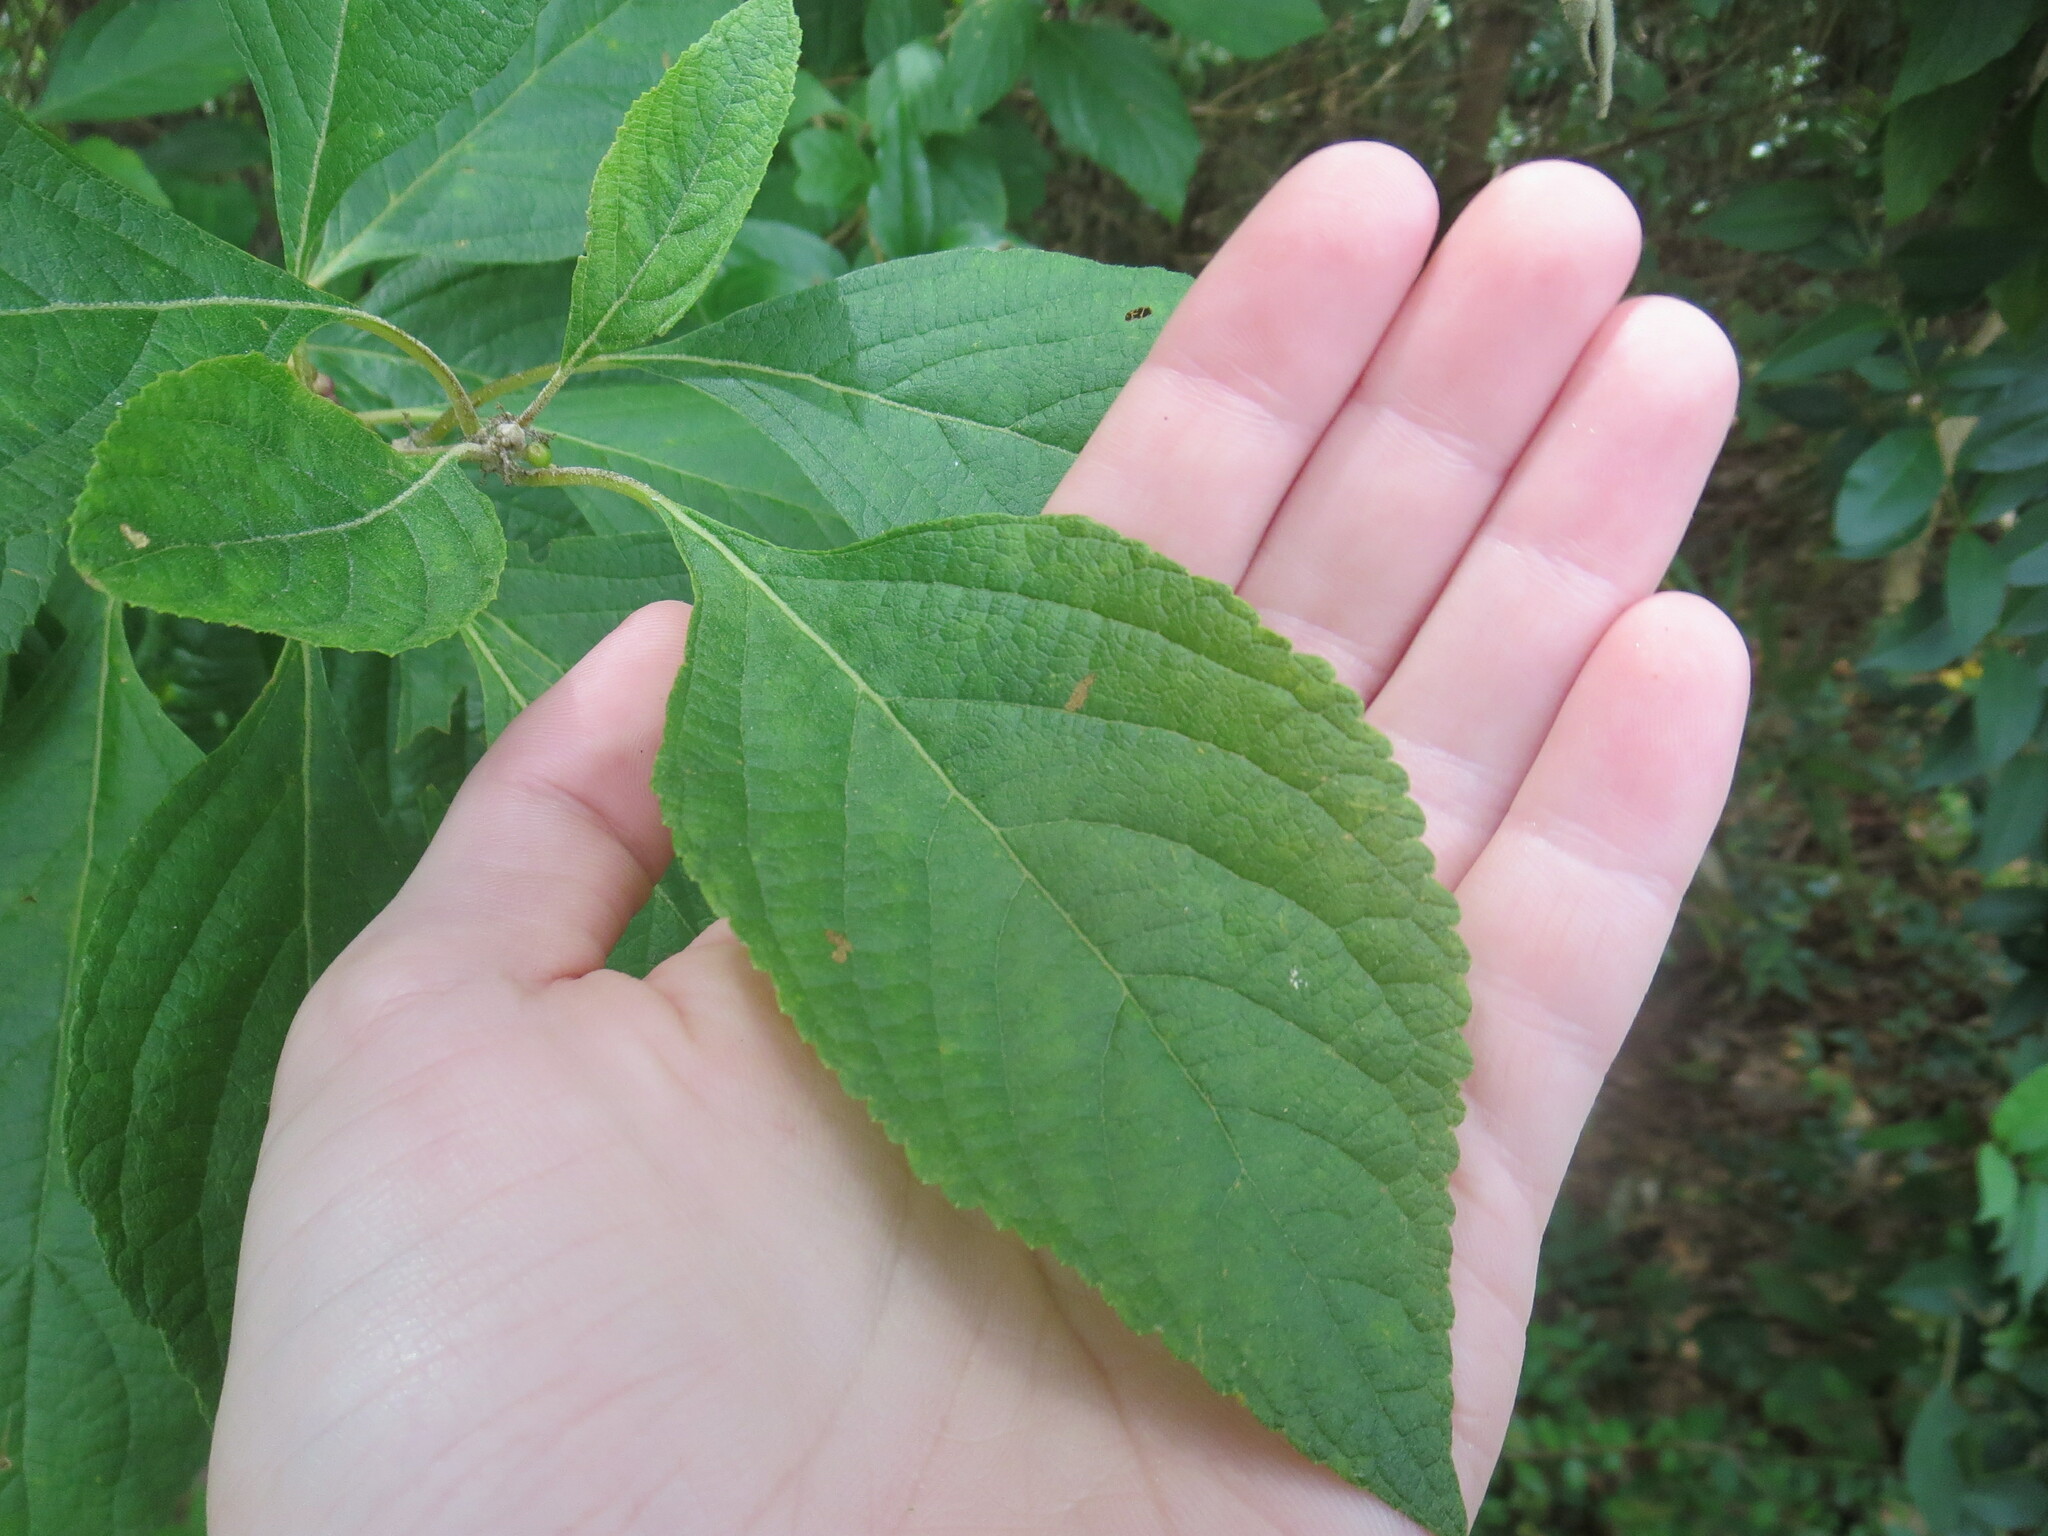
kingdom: Plantae
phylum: Tracheophyta
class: Magnoliopsida
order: Lamiales
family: Lamiaceae
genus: Callicarpa
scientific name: Callicarpa americana
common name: American beautyberry
